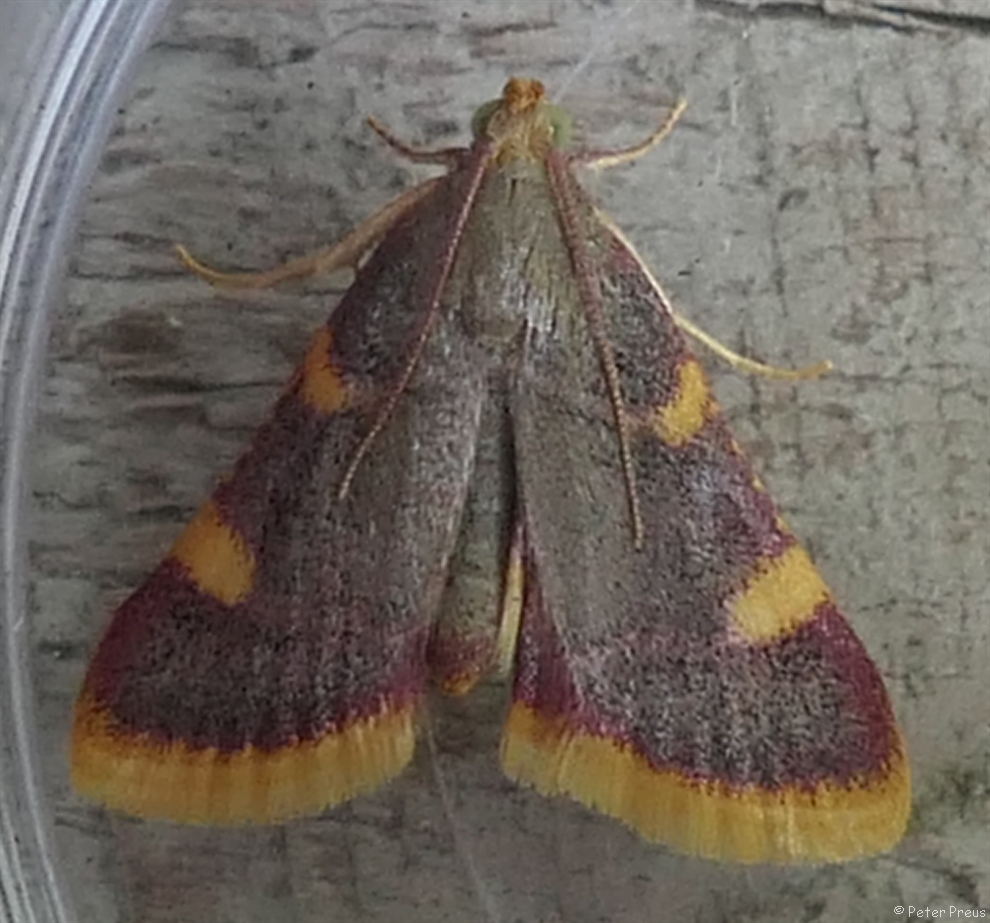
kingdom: Animalia
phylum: Arthropoda
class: Insecta
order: Lepidoptera
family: Pyralidae
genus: Hypsopygia
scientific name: Hypsopygia costalis
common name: Gold triangle
